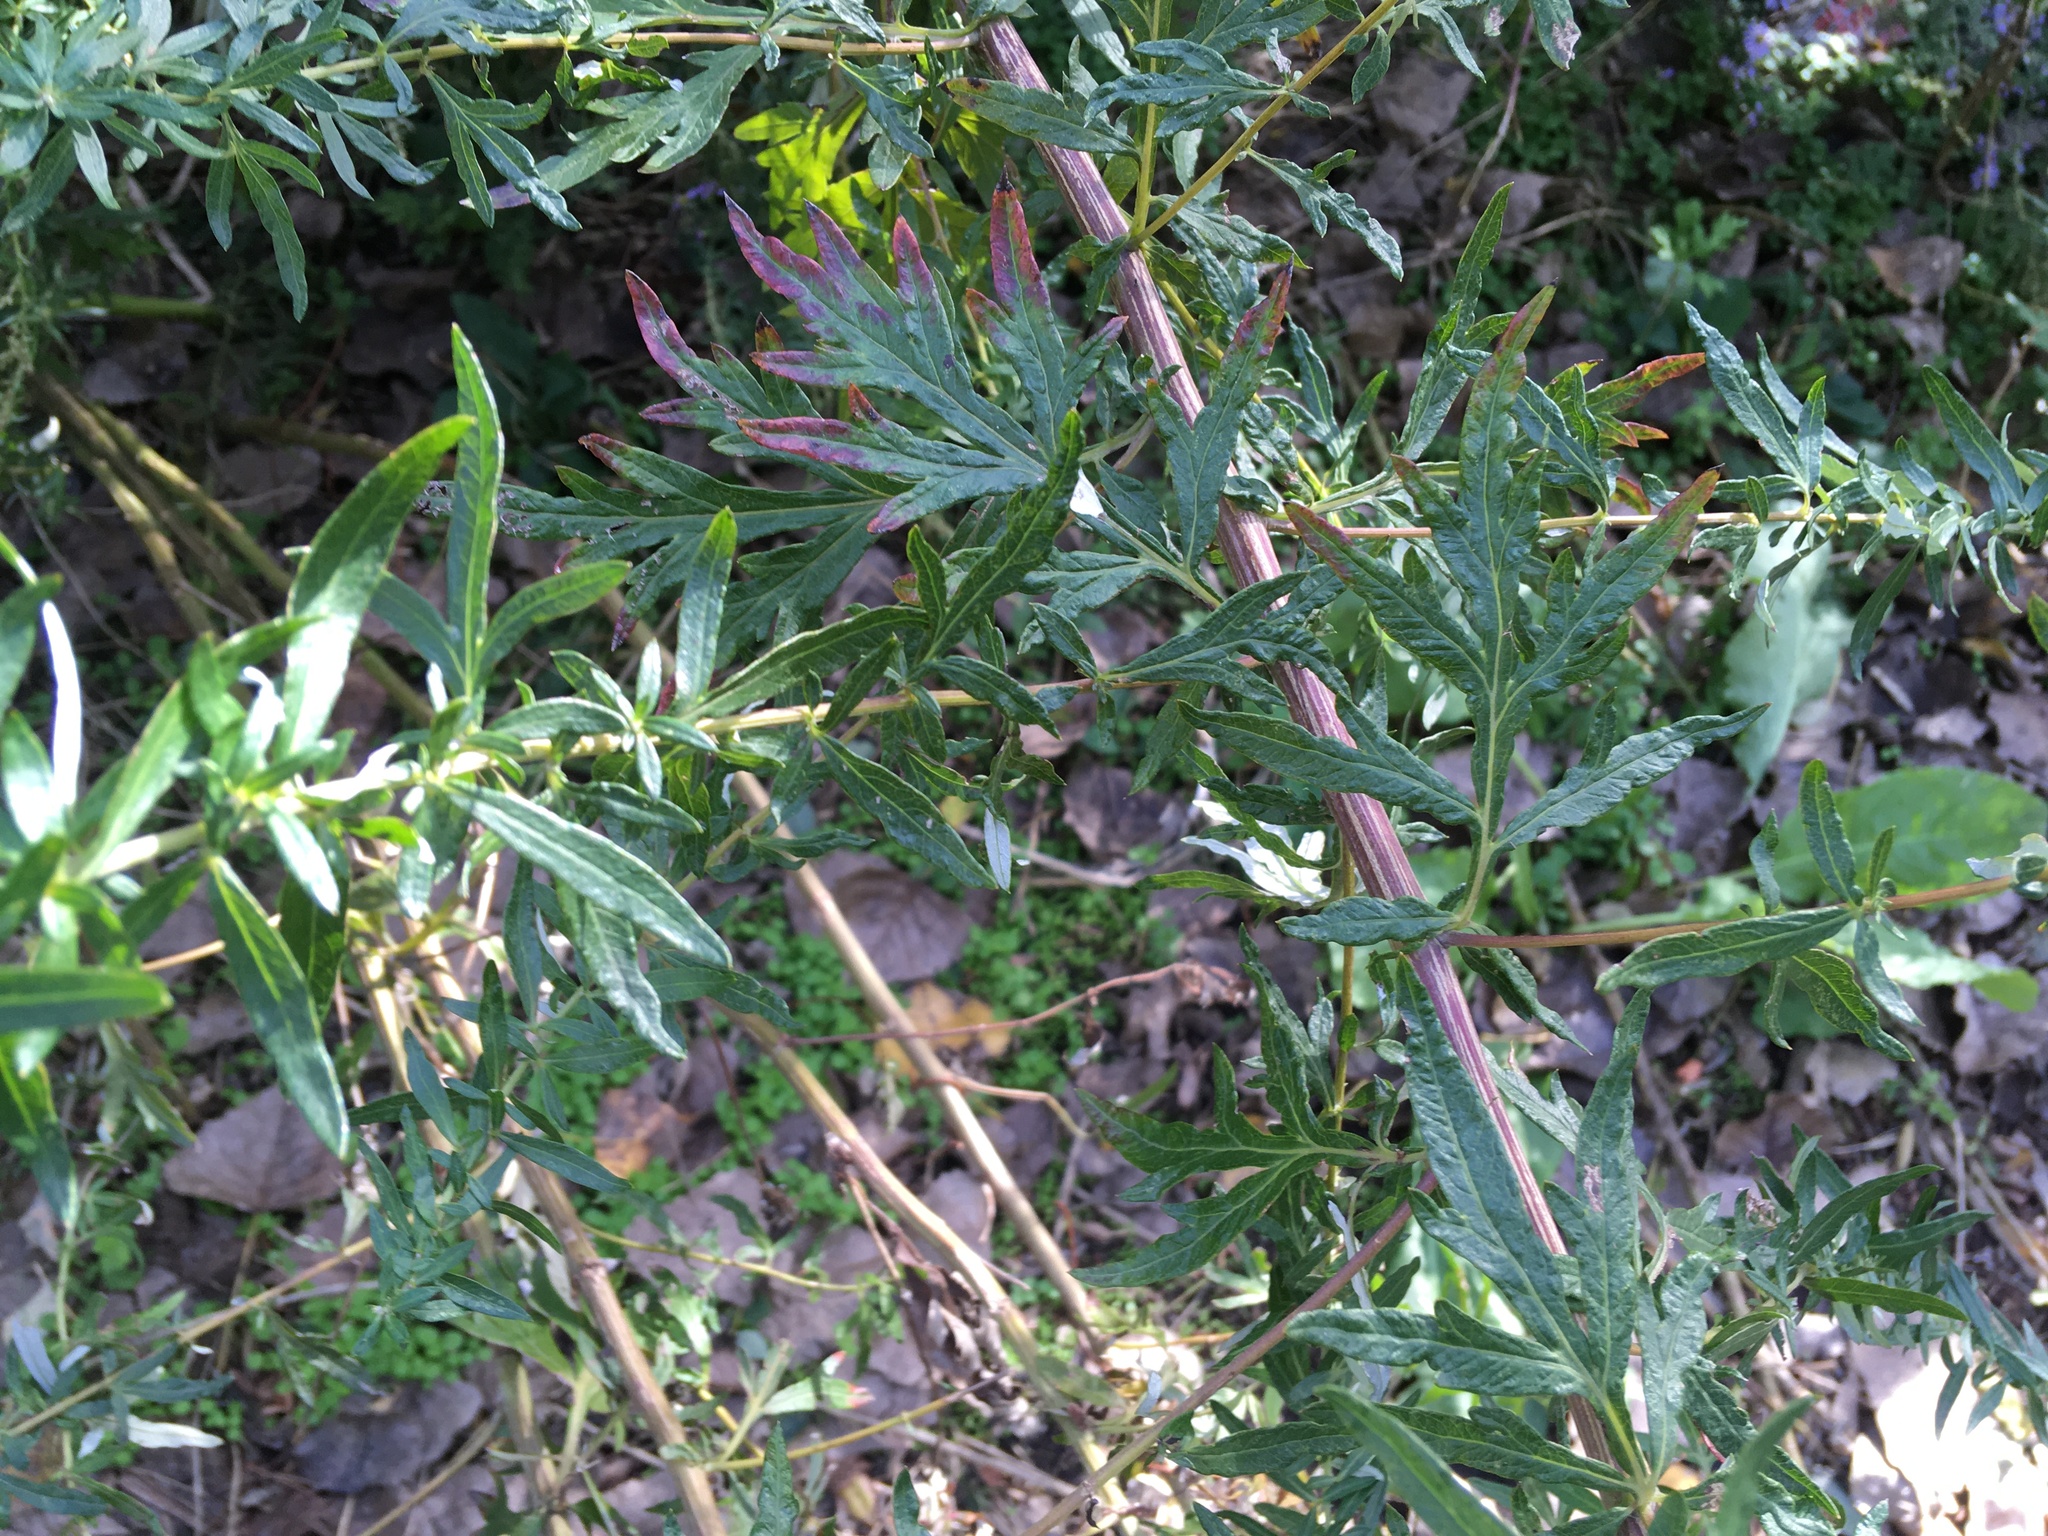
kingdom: Plantae
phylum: Tracheophyta
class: Magnoliopsida
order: Asterales
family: Asteraceae
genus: Artemisia
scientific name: Artemisia vulgaris
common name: Mugwort
